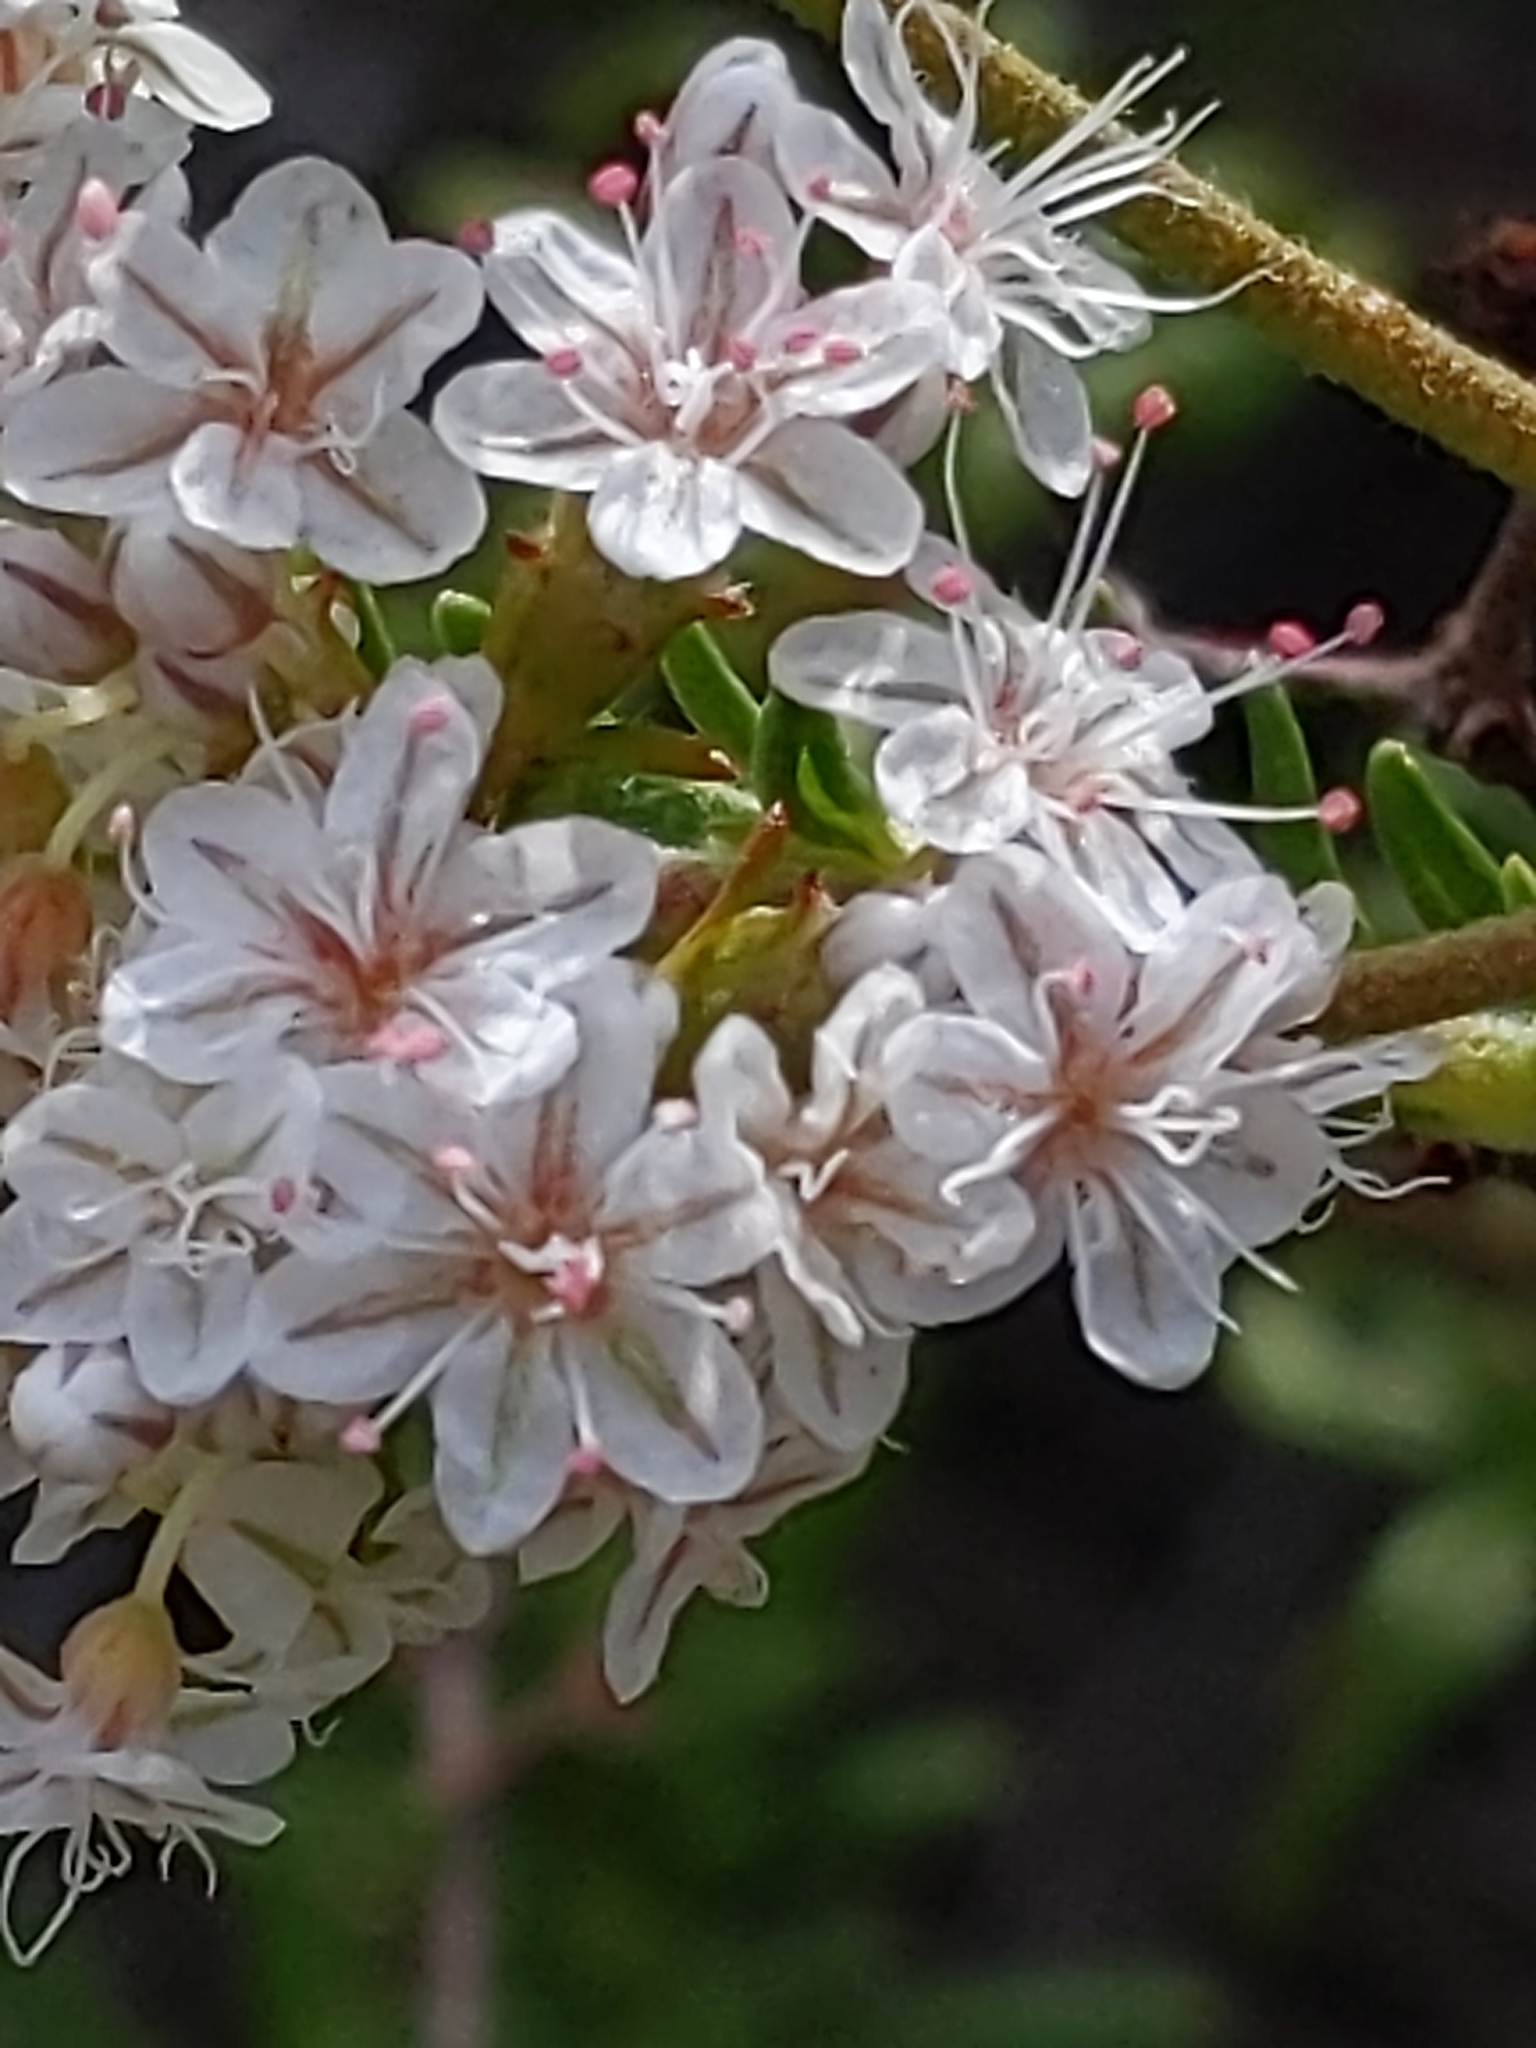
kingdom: Plantae
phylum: Tracheophyta
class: Magnoliopsida
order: Caryophyllales
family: Polygonaceae
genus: Eriogonum
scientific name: Eriogonum fasciculatum
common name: California wild buckwheat
